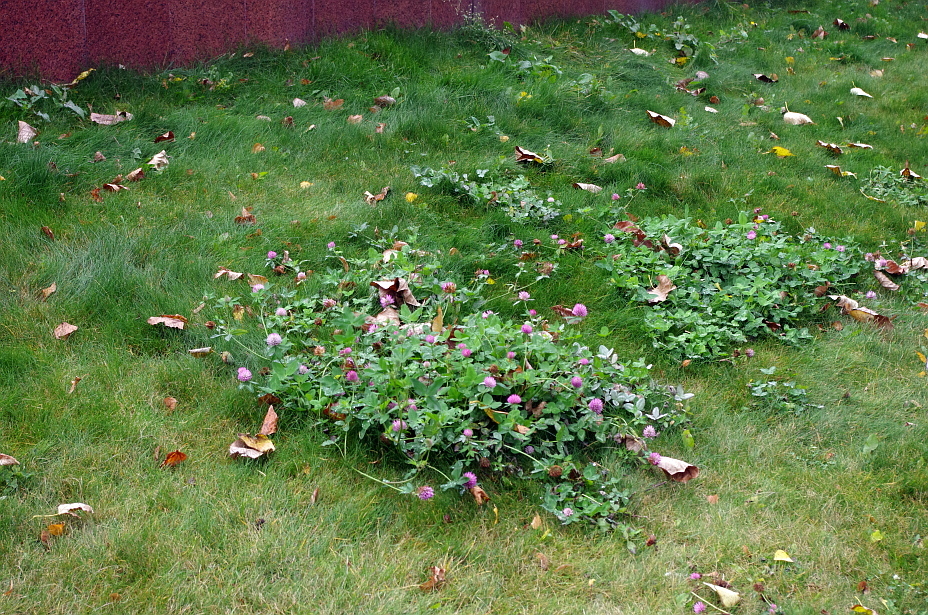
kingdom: Plantae
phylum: Tracheophyta
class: Magnoliopsida
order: Fabales
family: Fabaceae
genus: Trifolium
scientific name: Trifolium pratense
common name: Red clover
